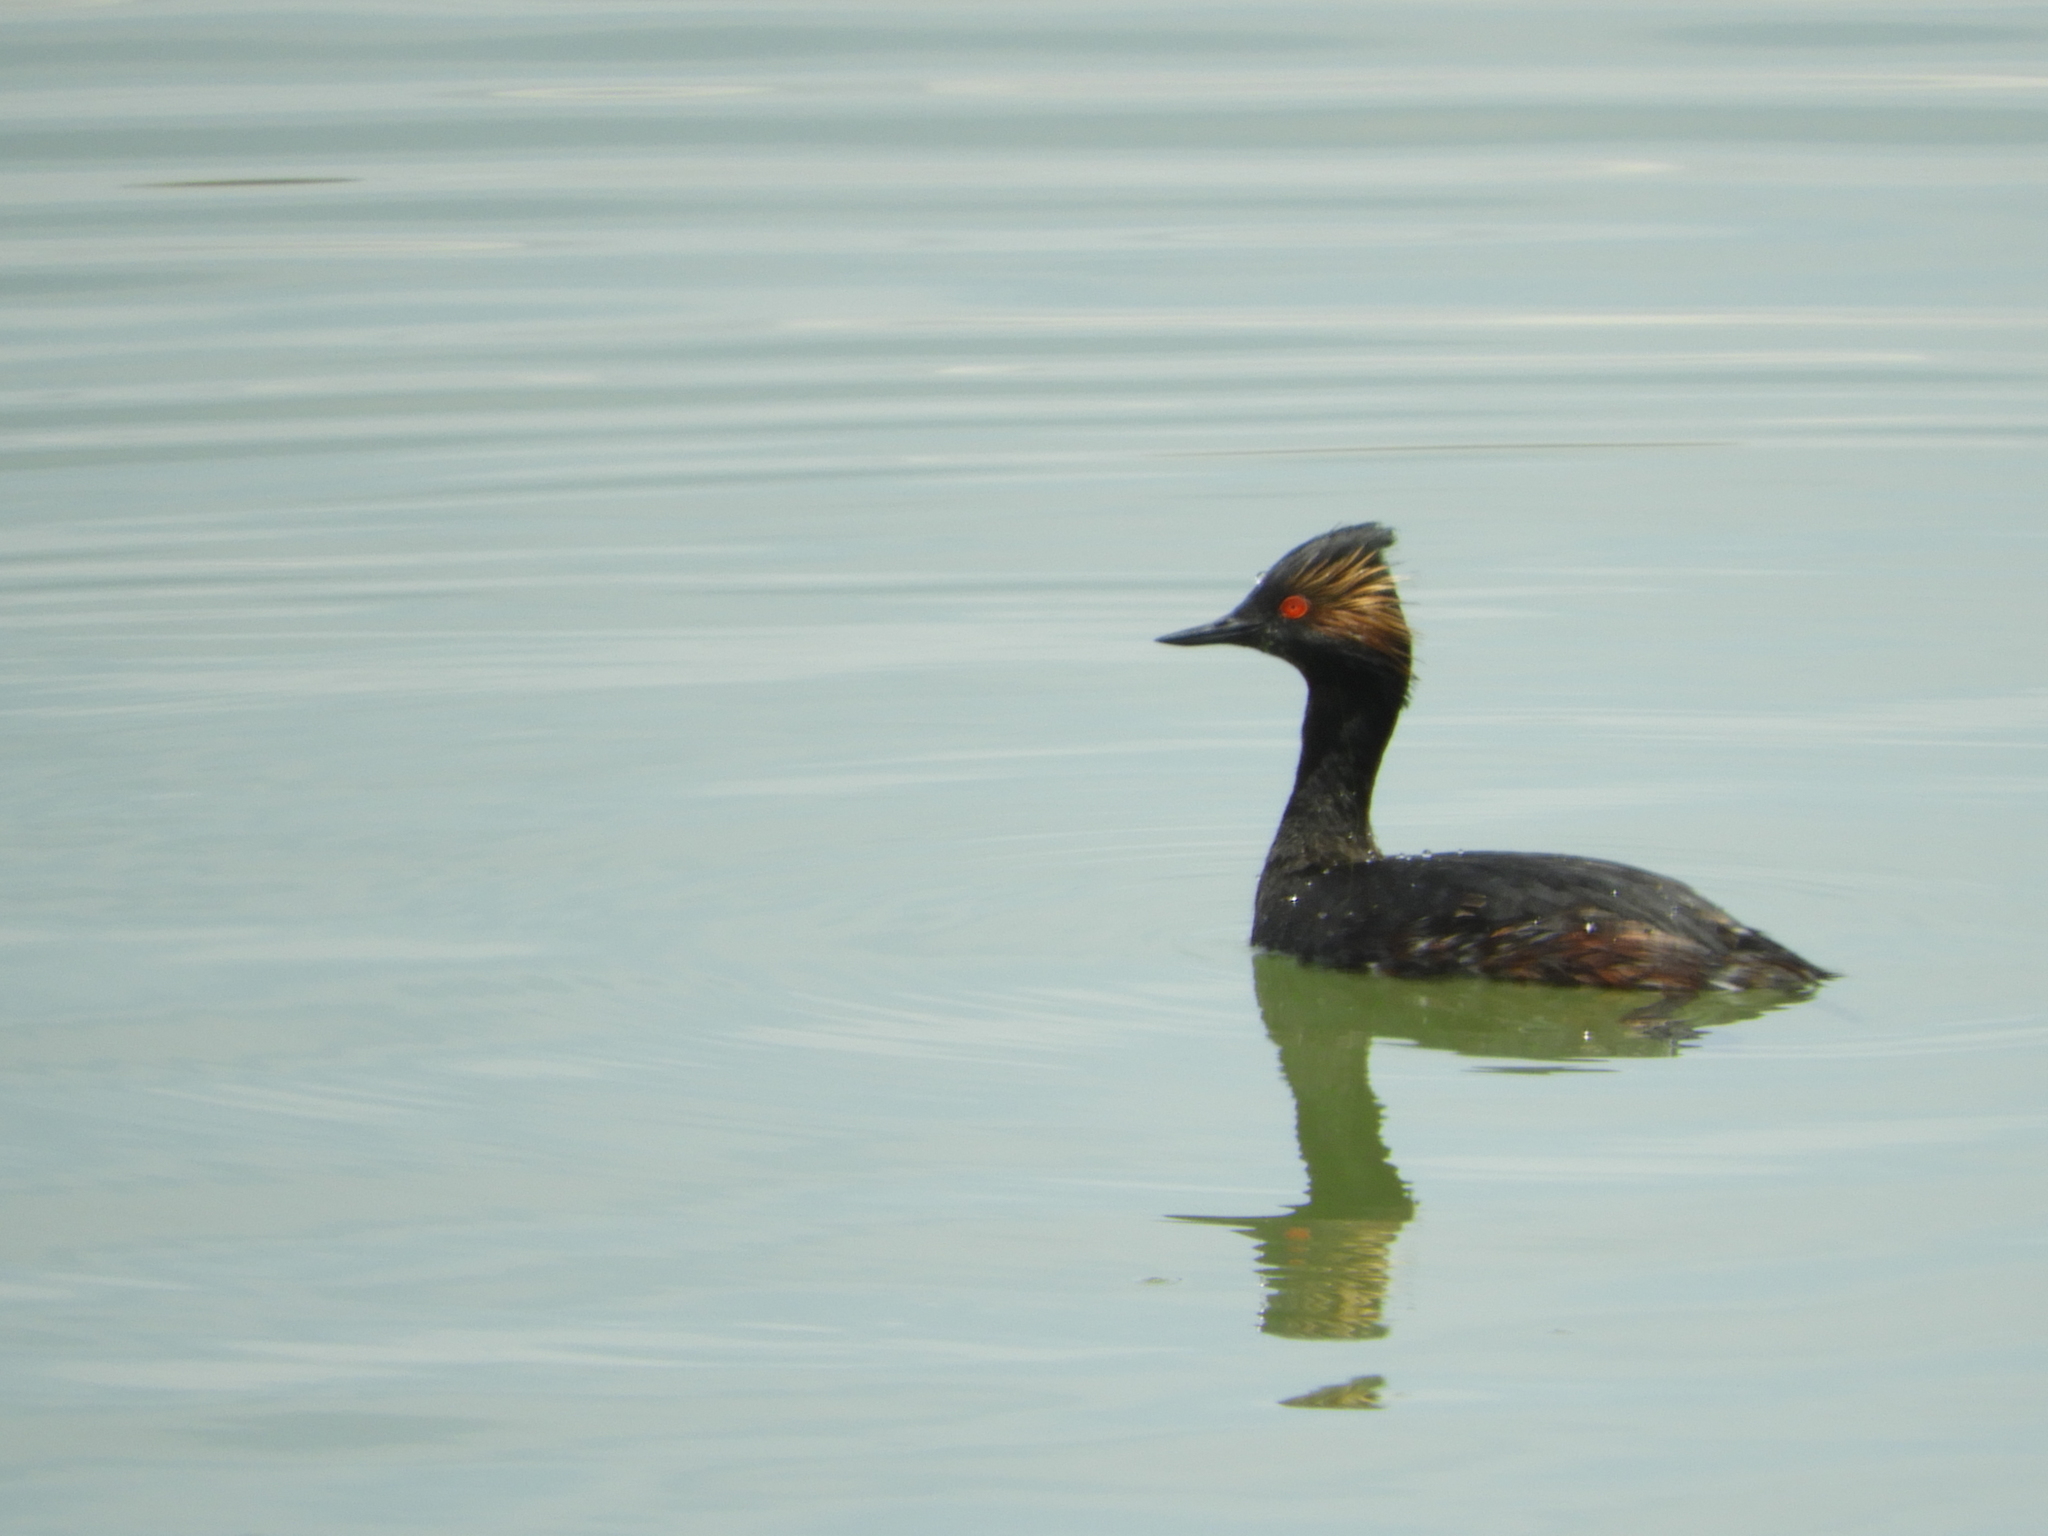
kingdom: Animalia
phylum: Chordata
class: Aves
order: Podicipediformes
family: Podicipedidae
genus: Podiceps
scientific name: Podiceps nigricollis
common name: Black-necked grebe
